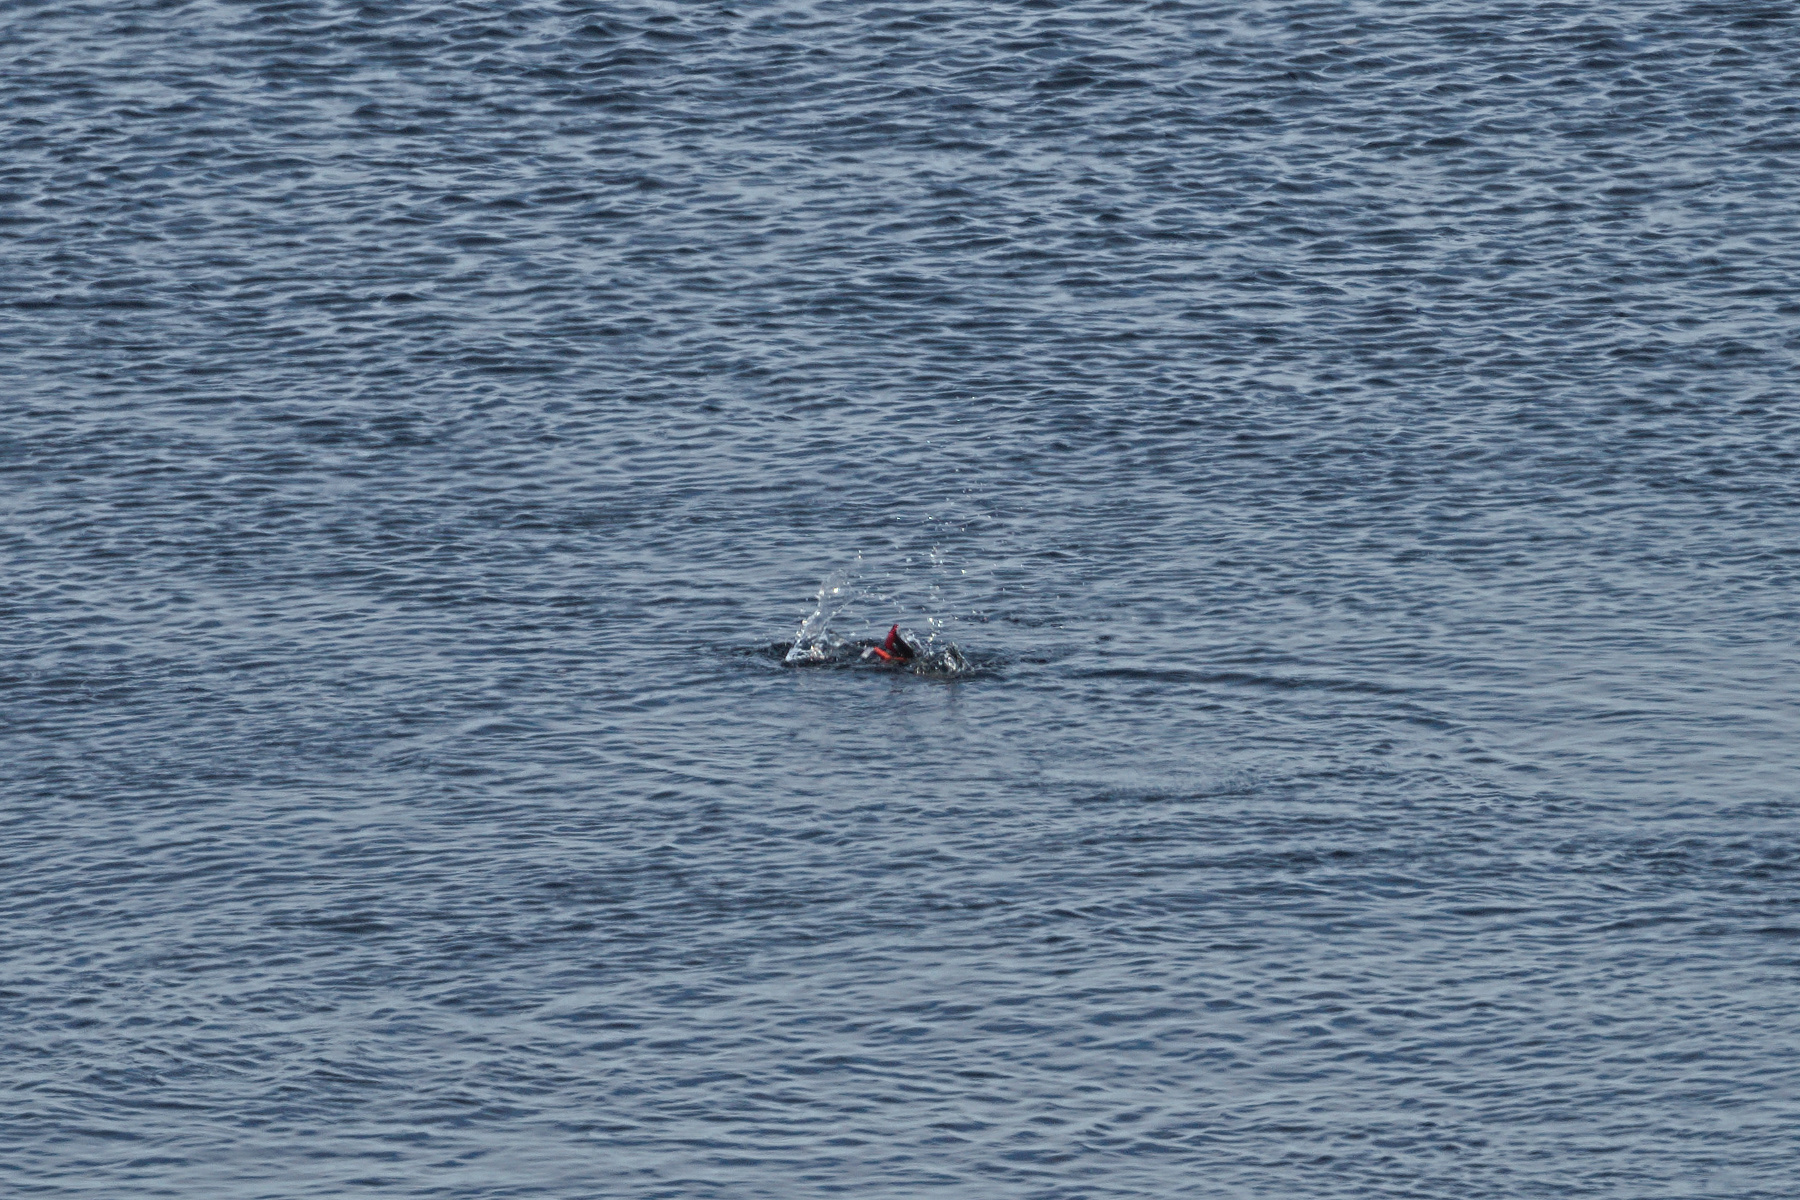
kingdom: Animalia
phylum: Chordata
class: Aves
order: Charadriiformes
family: Alcidae
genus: Cepphus
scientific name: Cepphus grylle
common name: Black guillemot
